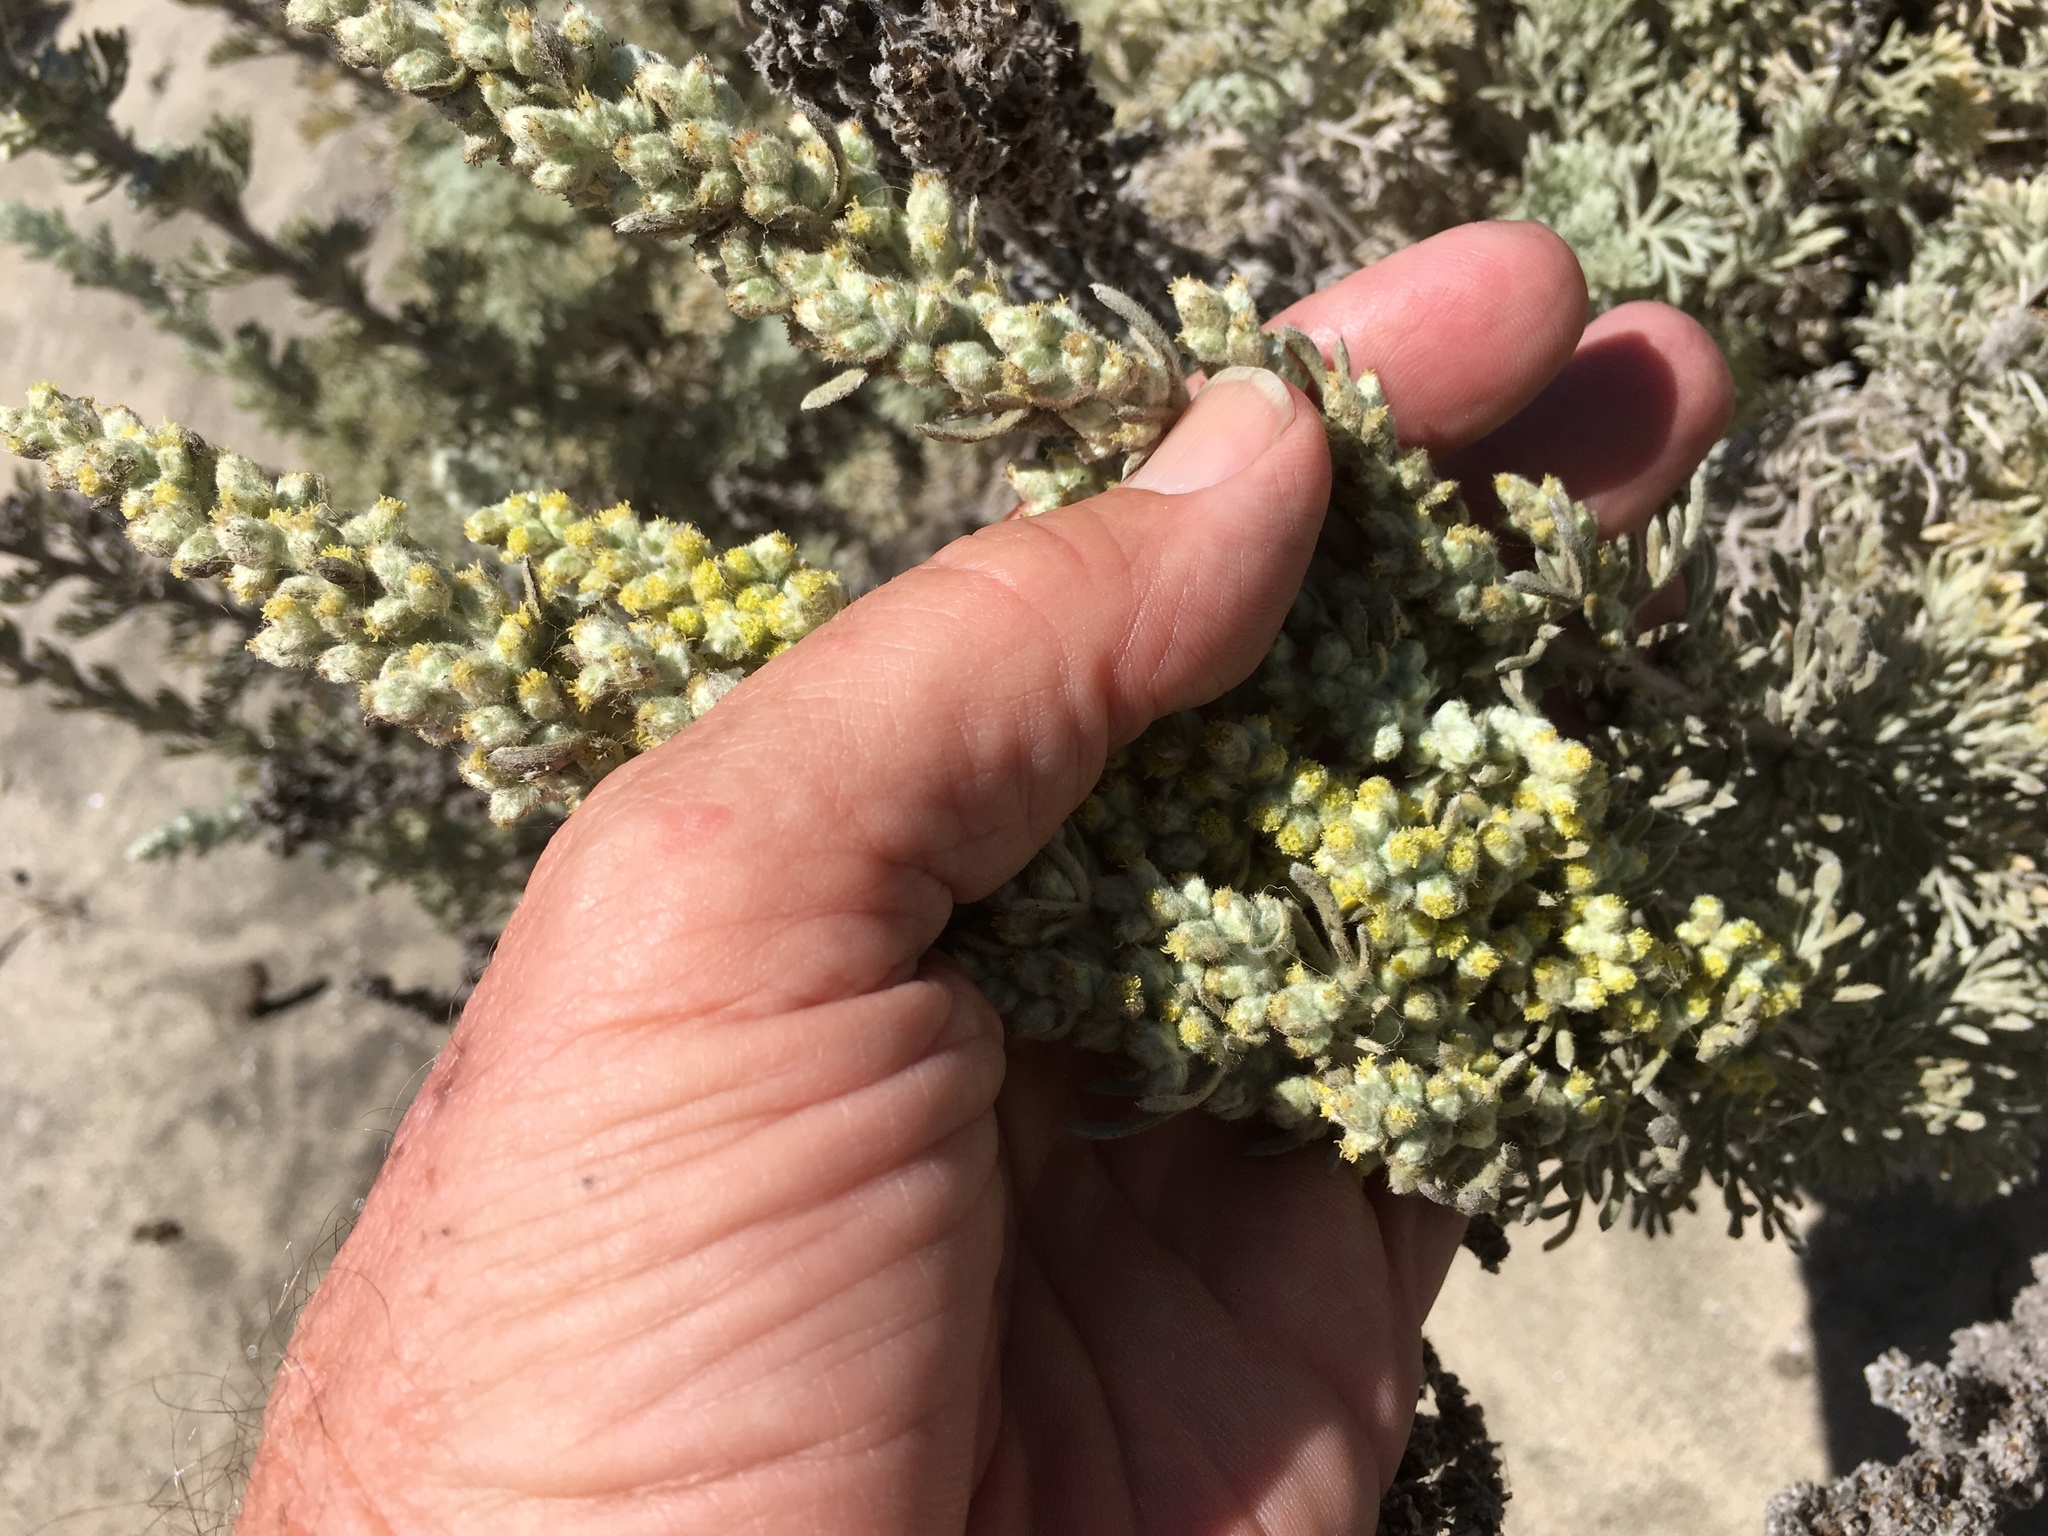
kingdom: Plantae
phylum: Tracheophyta
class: Magnoliopsida
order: Asterales
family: Asteraceae
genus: Artemisia
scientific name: Artemisia pycnocephala
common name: Coastal sagewort
